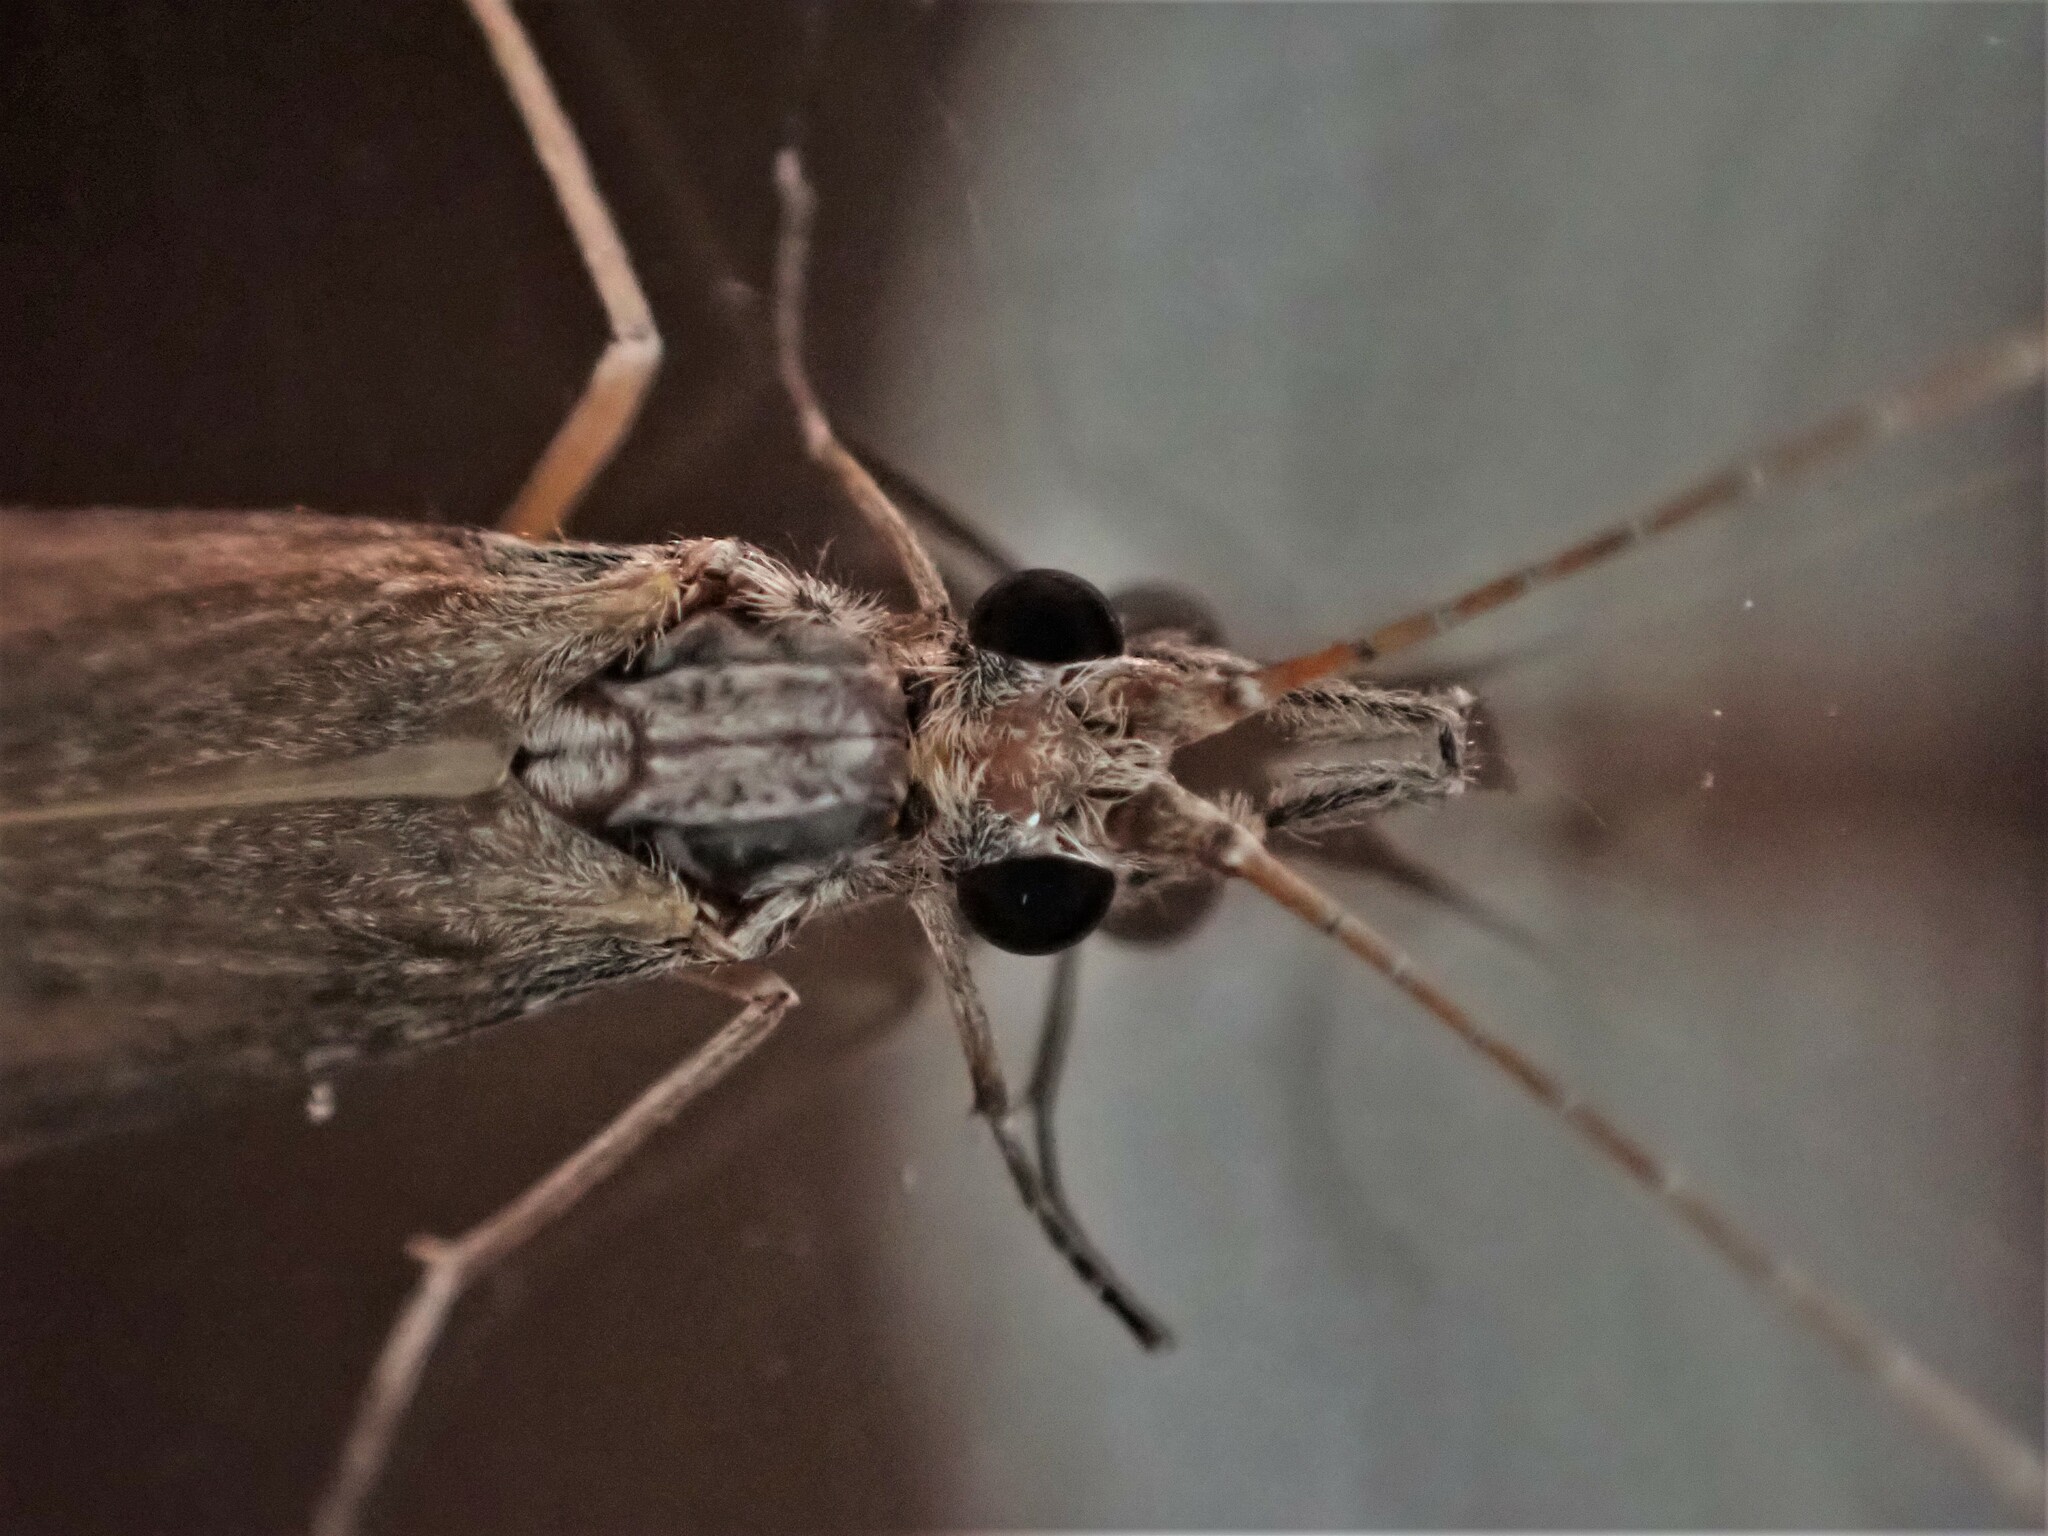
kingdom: Animalia
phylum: Arthropoda
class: Insecta
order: Trichoptera
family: Leptoceridae
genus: Triplectides
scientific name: Triplectides cephalotes
